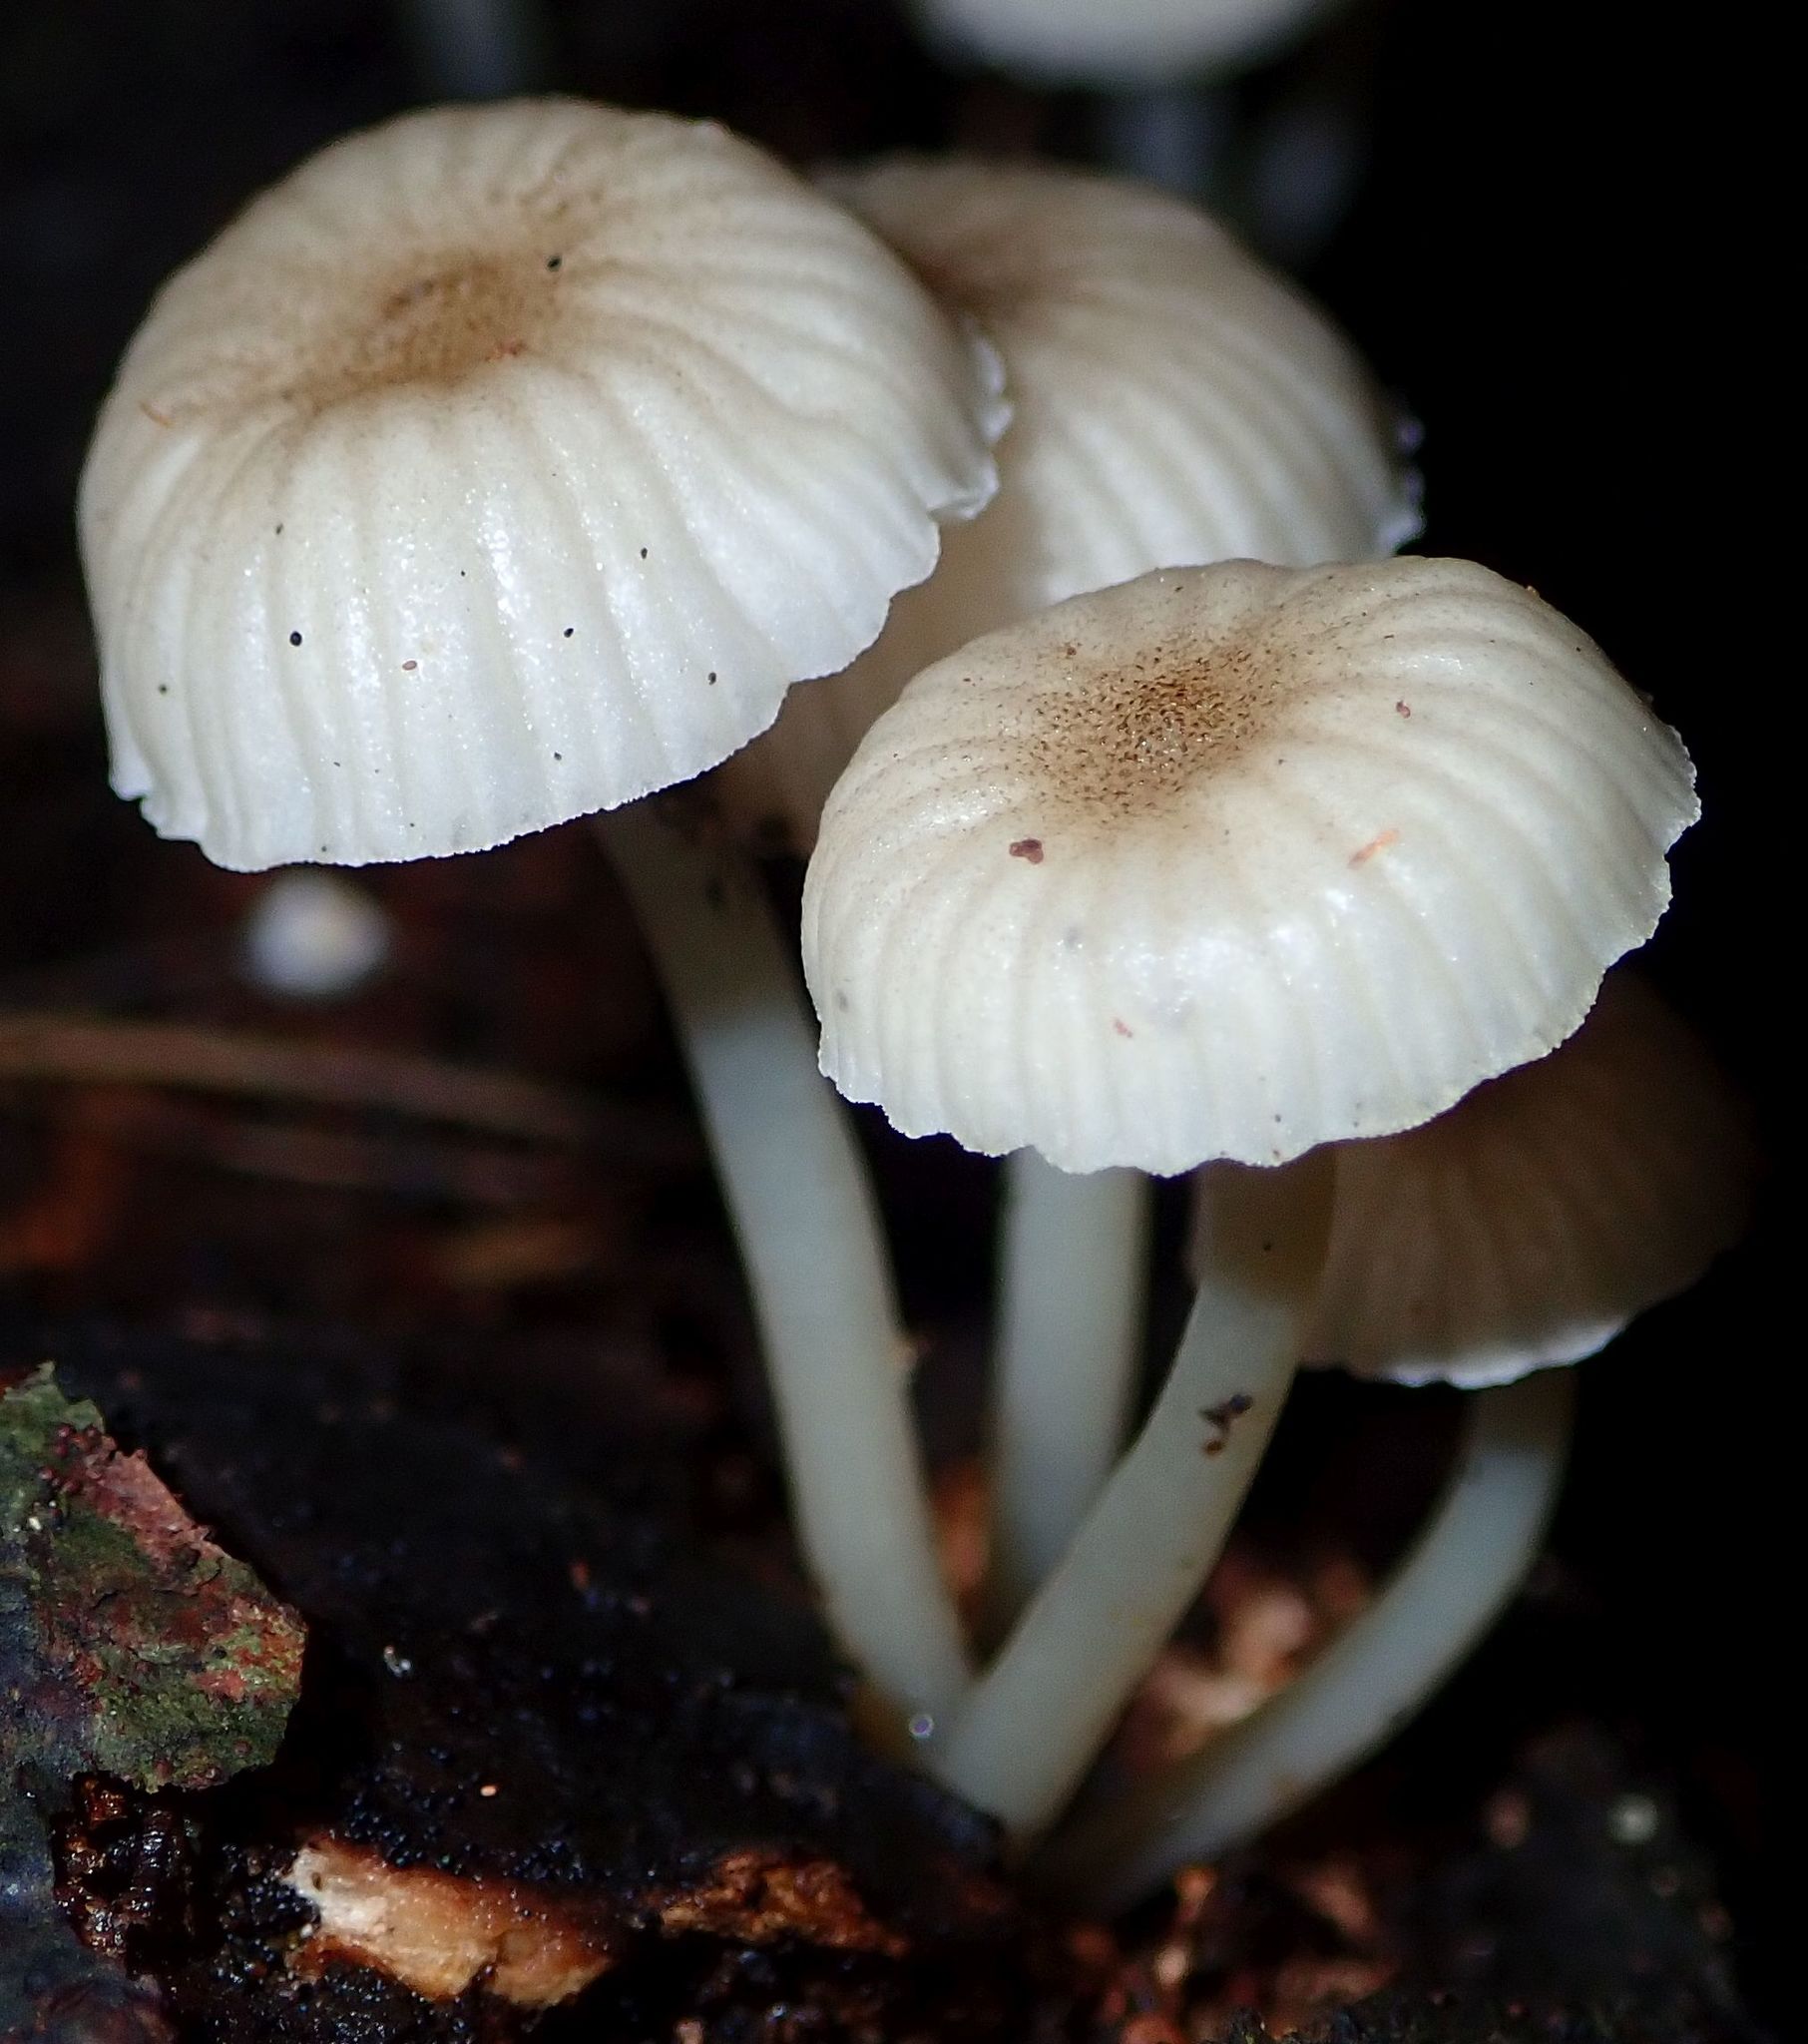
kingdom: Fungi
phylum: Basidiomycota
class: Agaricomycetes
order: Agaricales
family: Mycenaceae
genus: Roridomyces
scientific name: Roridomyces austrororidus
